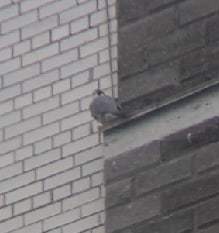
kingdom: Animalia
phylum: Chordata
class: Aves
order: Falconiformes
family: Falconidae
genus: Falco
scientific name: Falco peregrinus
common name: Peregrine falcon
